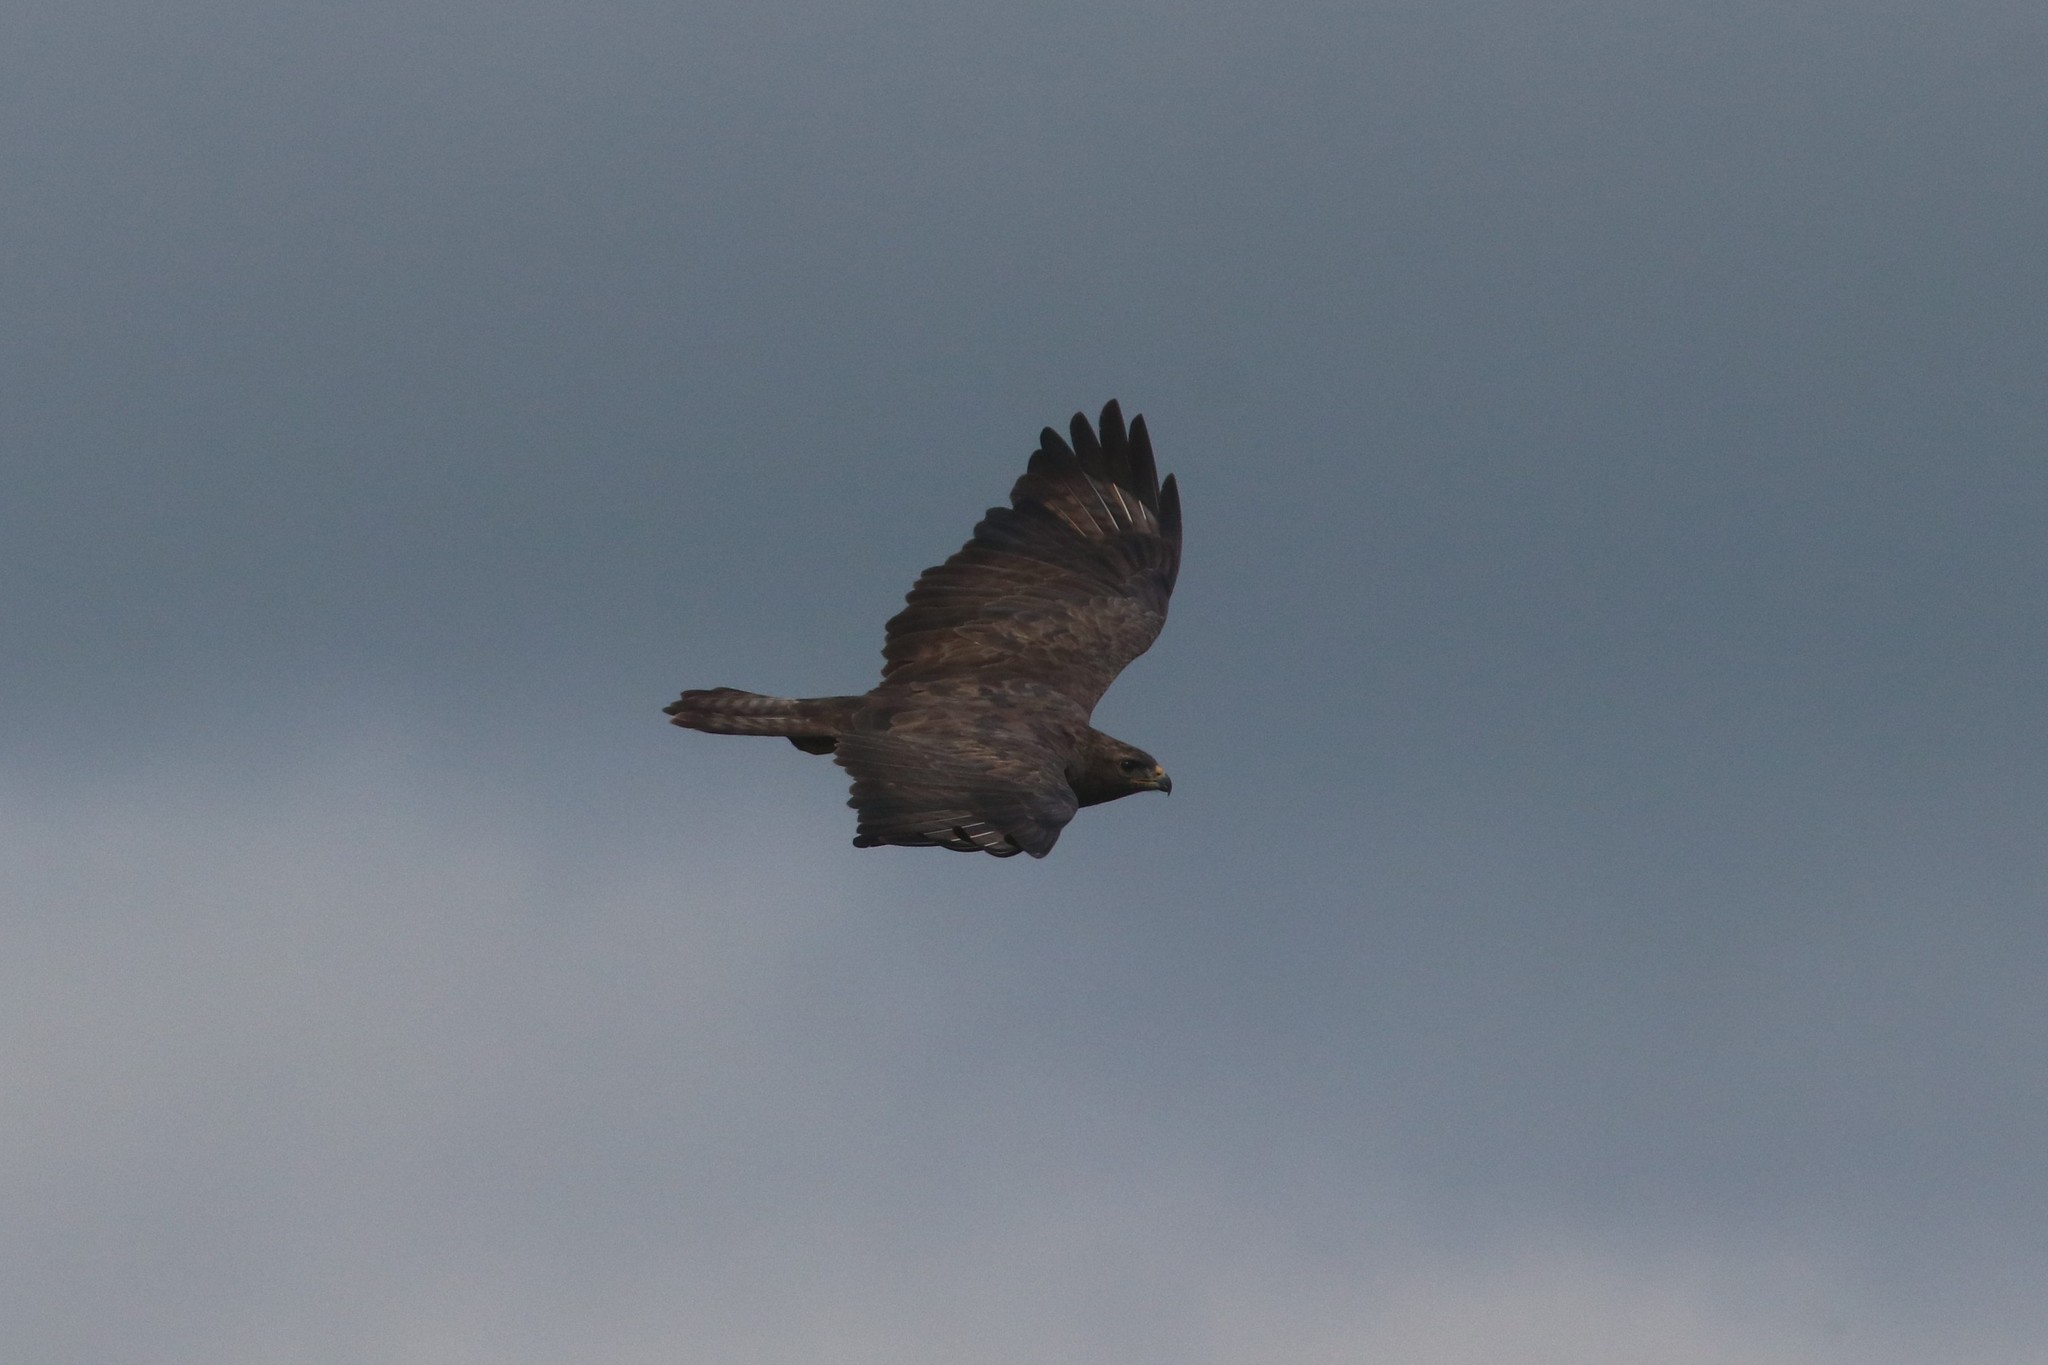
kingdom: Animalia
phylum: Chordata
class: Aves
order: Accipitriformes
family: Accipitridae
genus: Buteo
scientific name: Buteo buteo
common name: Common buzzard
